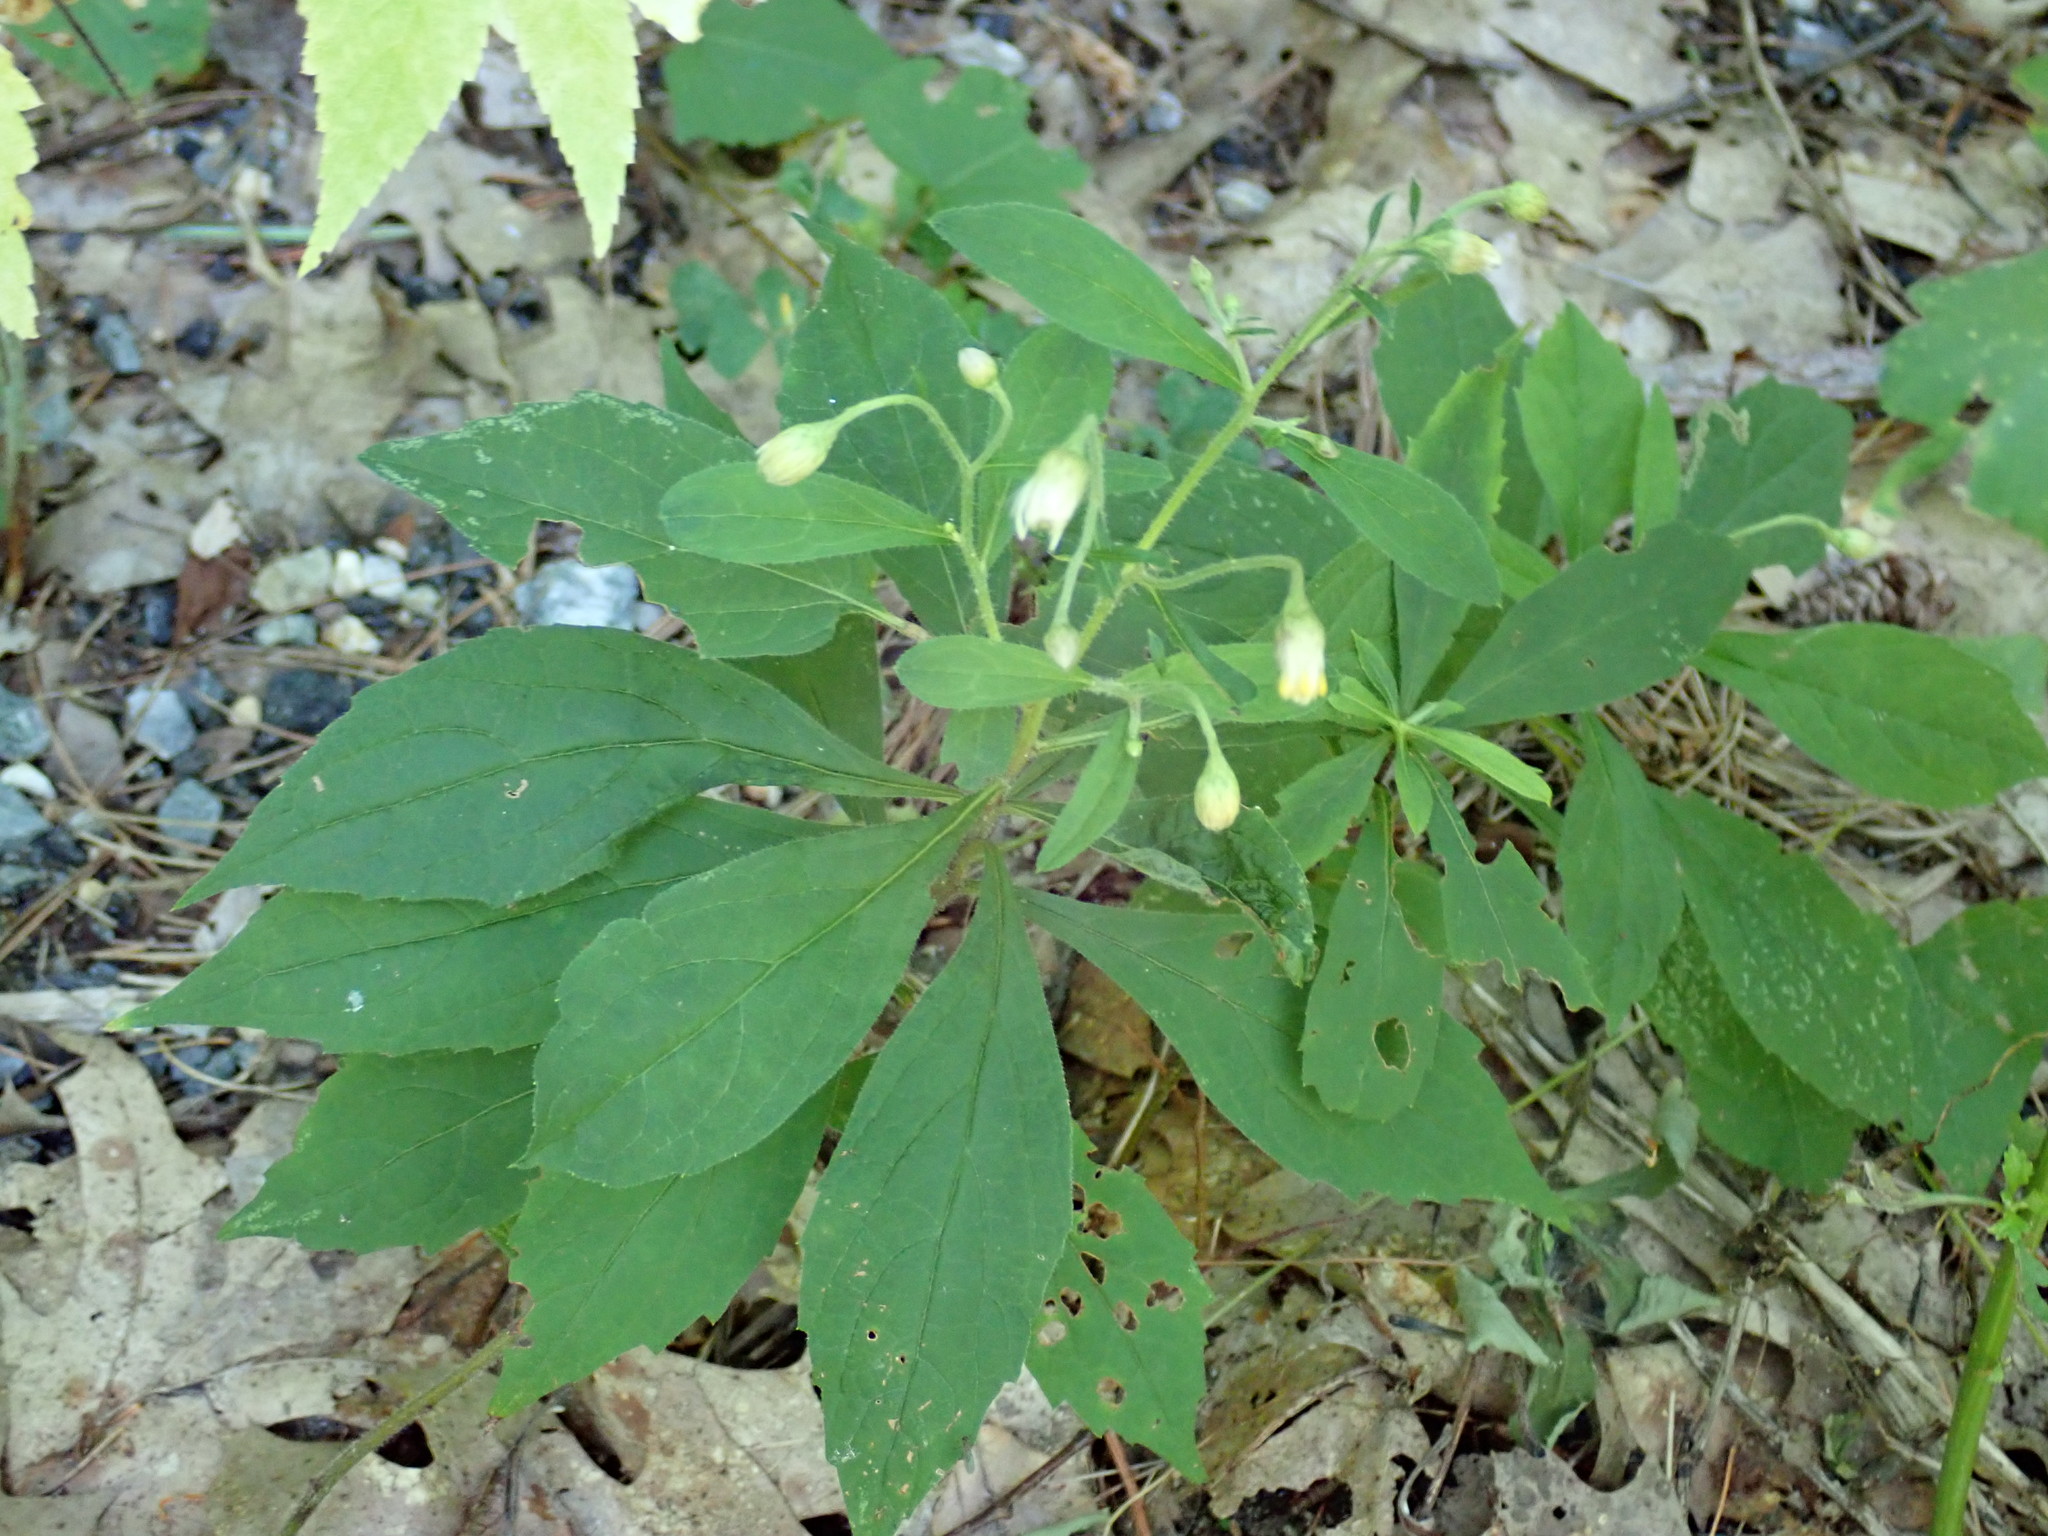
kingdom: Plantae
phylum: Tracheophyta
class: Magnoliopsida
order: Asterales
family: Asteraceae
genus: Oclemena
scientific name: Oclemena acuminata
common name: Mountain aster
